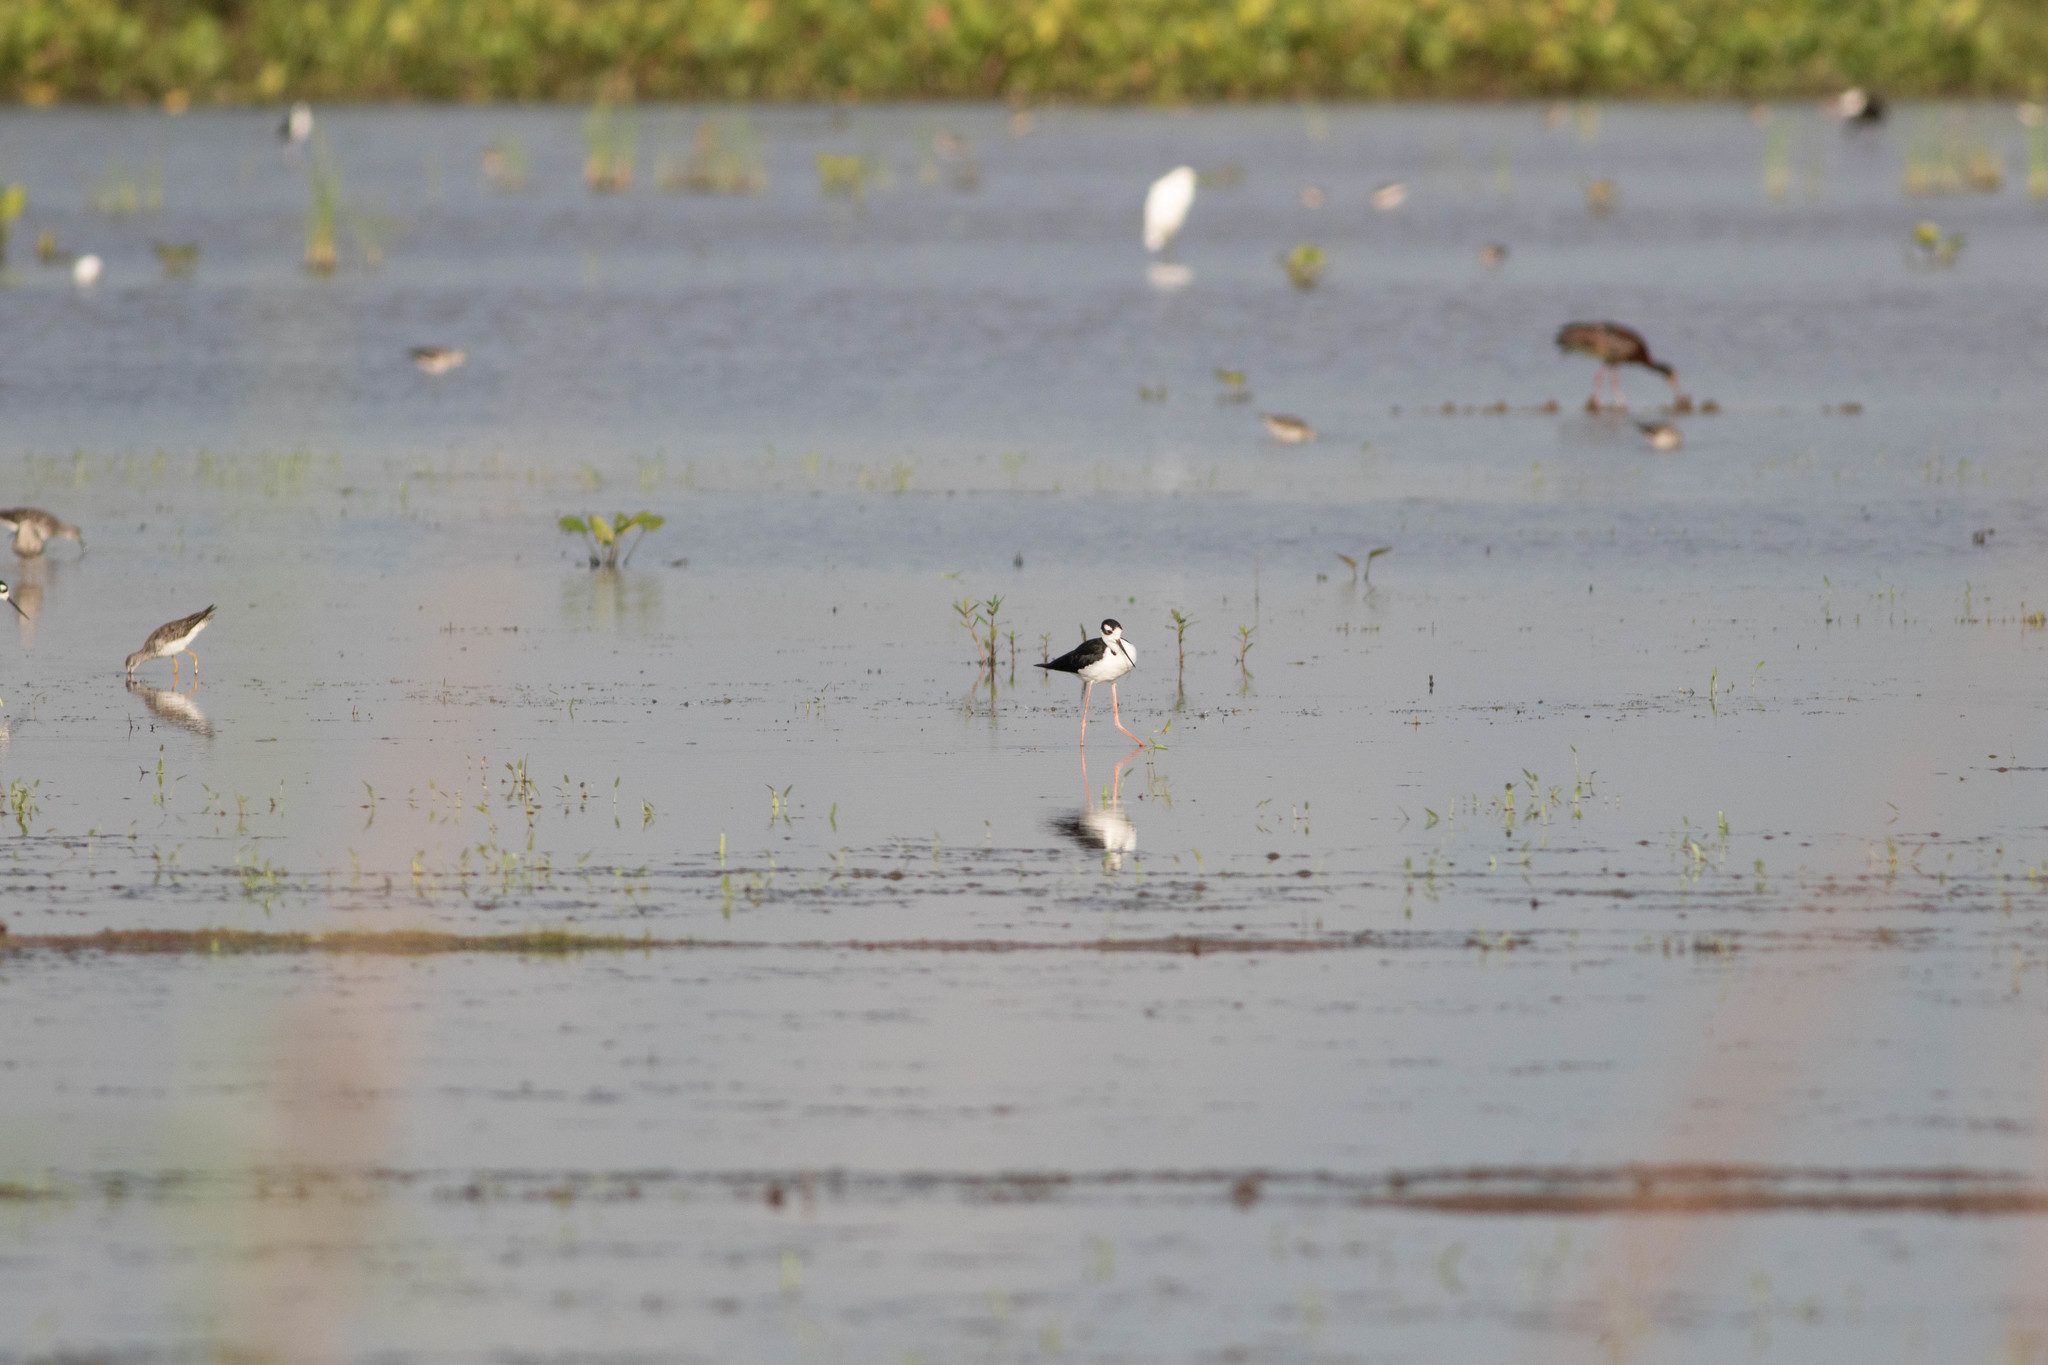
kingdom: Animalia
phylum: Chordata
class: Aves
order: Charadriiformes
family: Recurvirostridae
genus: Himantopus
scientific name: Himantopus mexicanus
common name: Black-necked stilt
